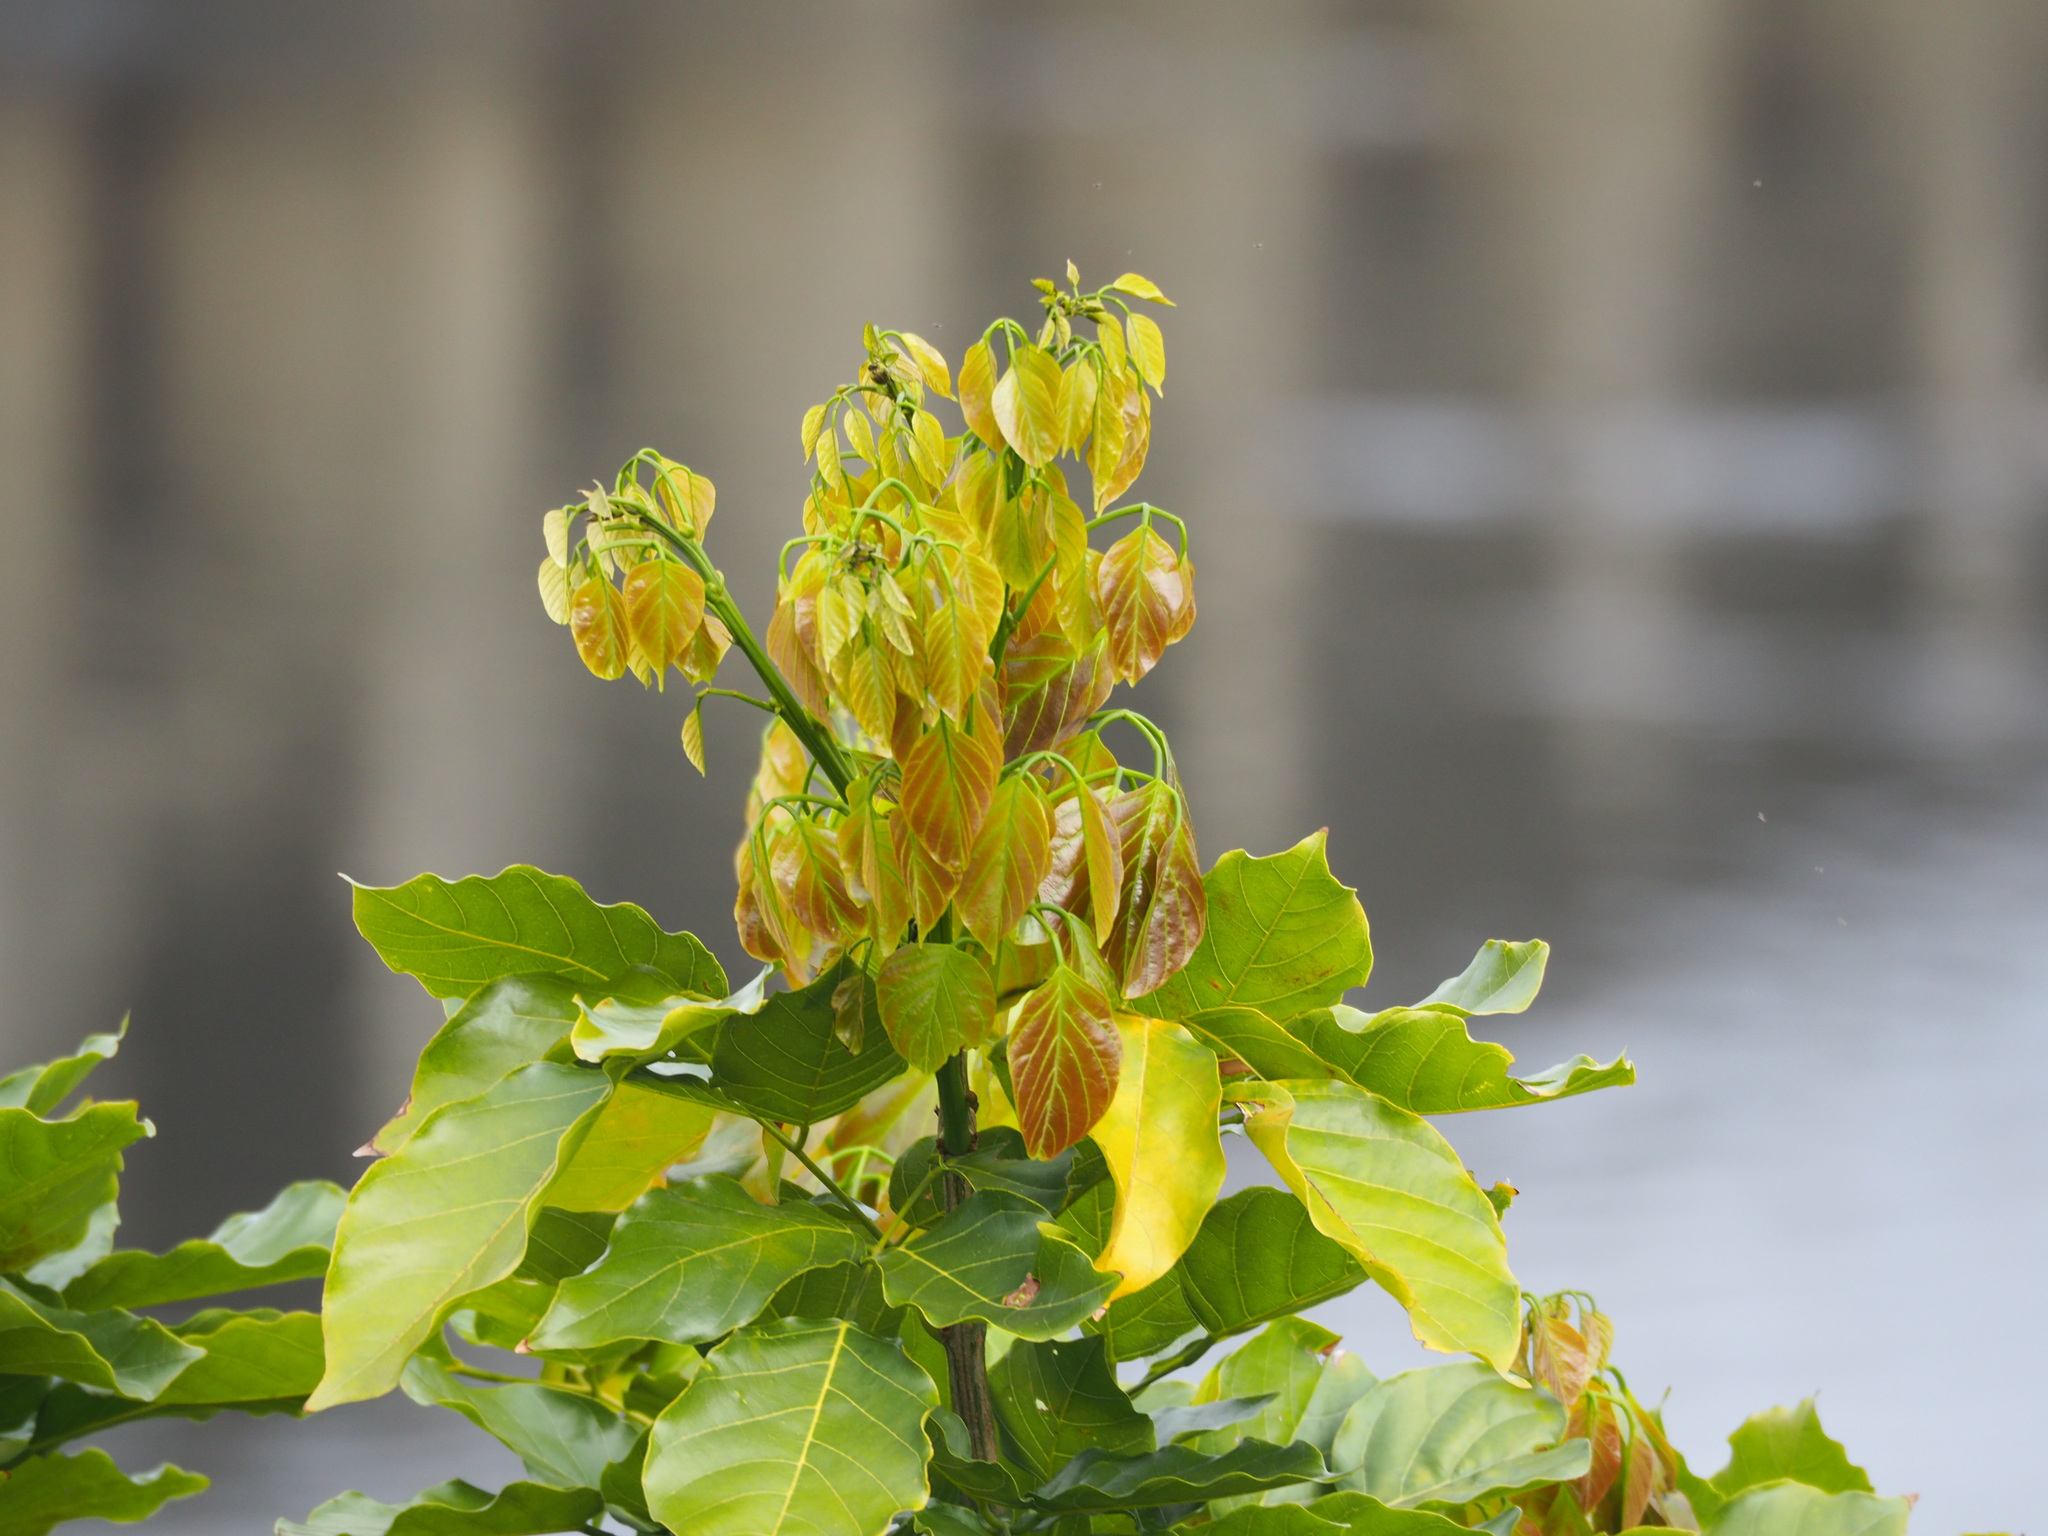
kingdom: Plantae
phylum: Tracheophyta
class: Magnoliopsida
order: Fabales
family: Fabaceae
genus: Pongamia
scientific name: Pongamia pinnata
